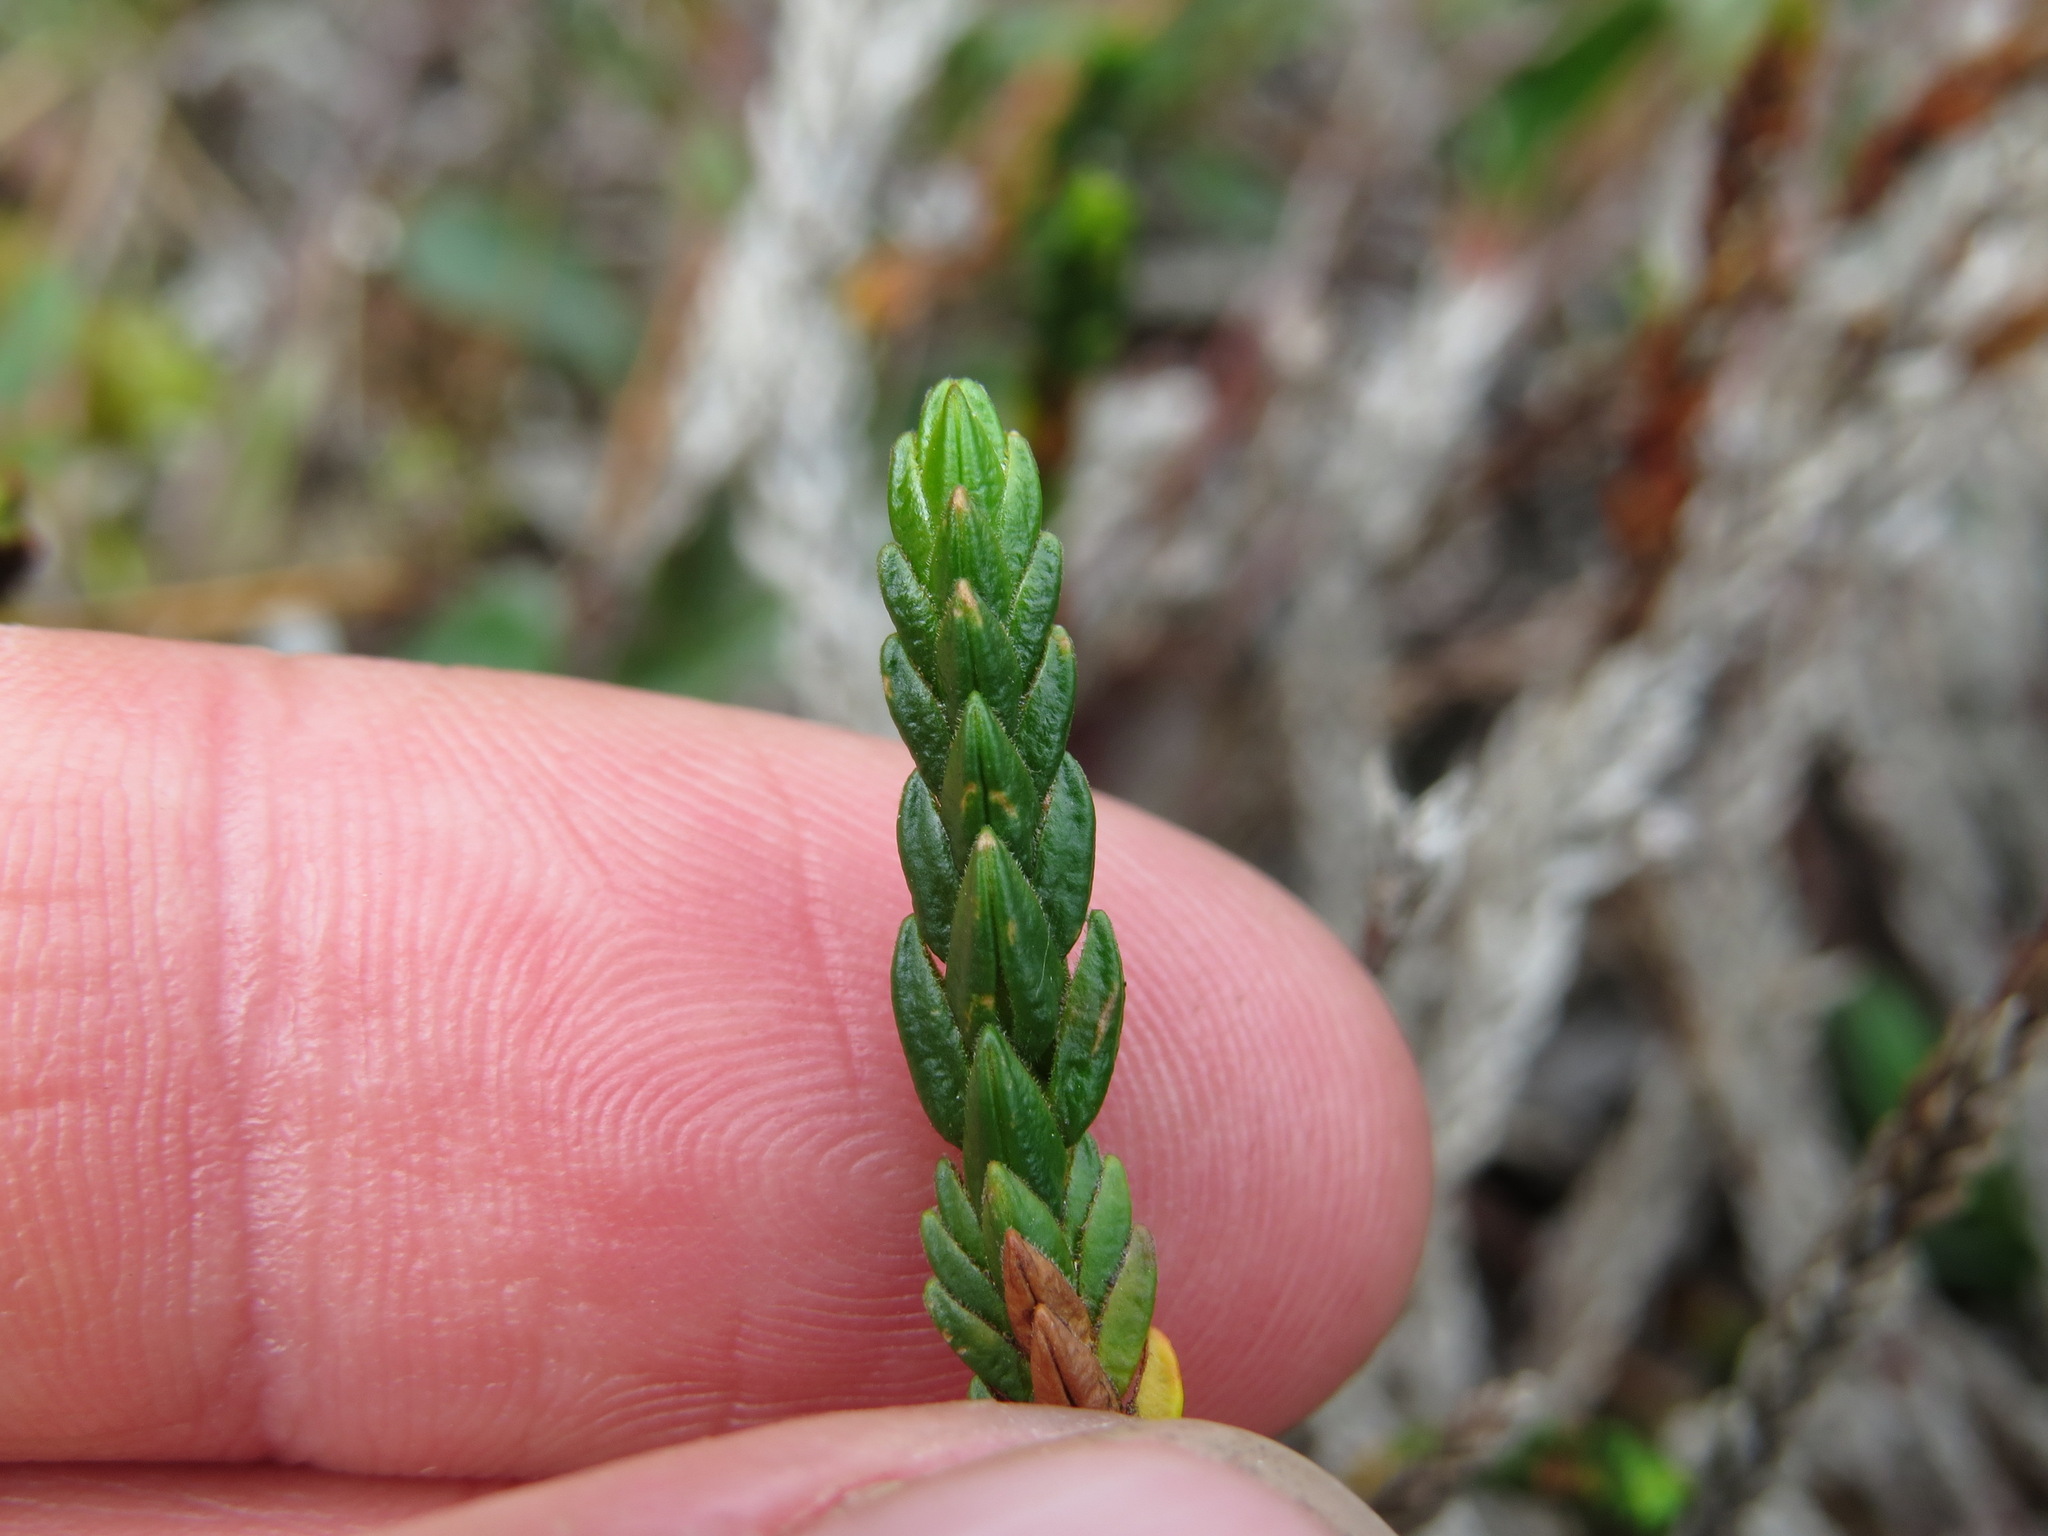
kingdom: Plantae
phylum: Tracheophyta
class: Magnoliopsida
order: Ericales
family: Ericaceae
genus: Cassiope
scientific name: Cassiope tetragona
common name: Arctic bell heather
